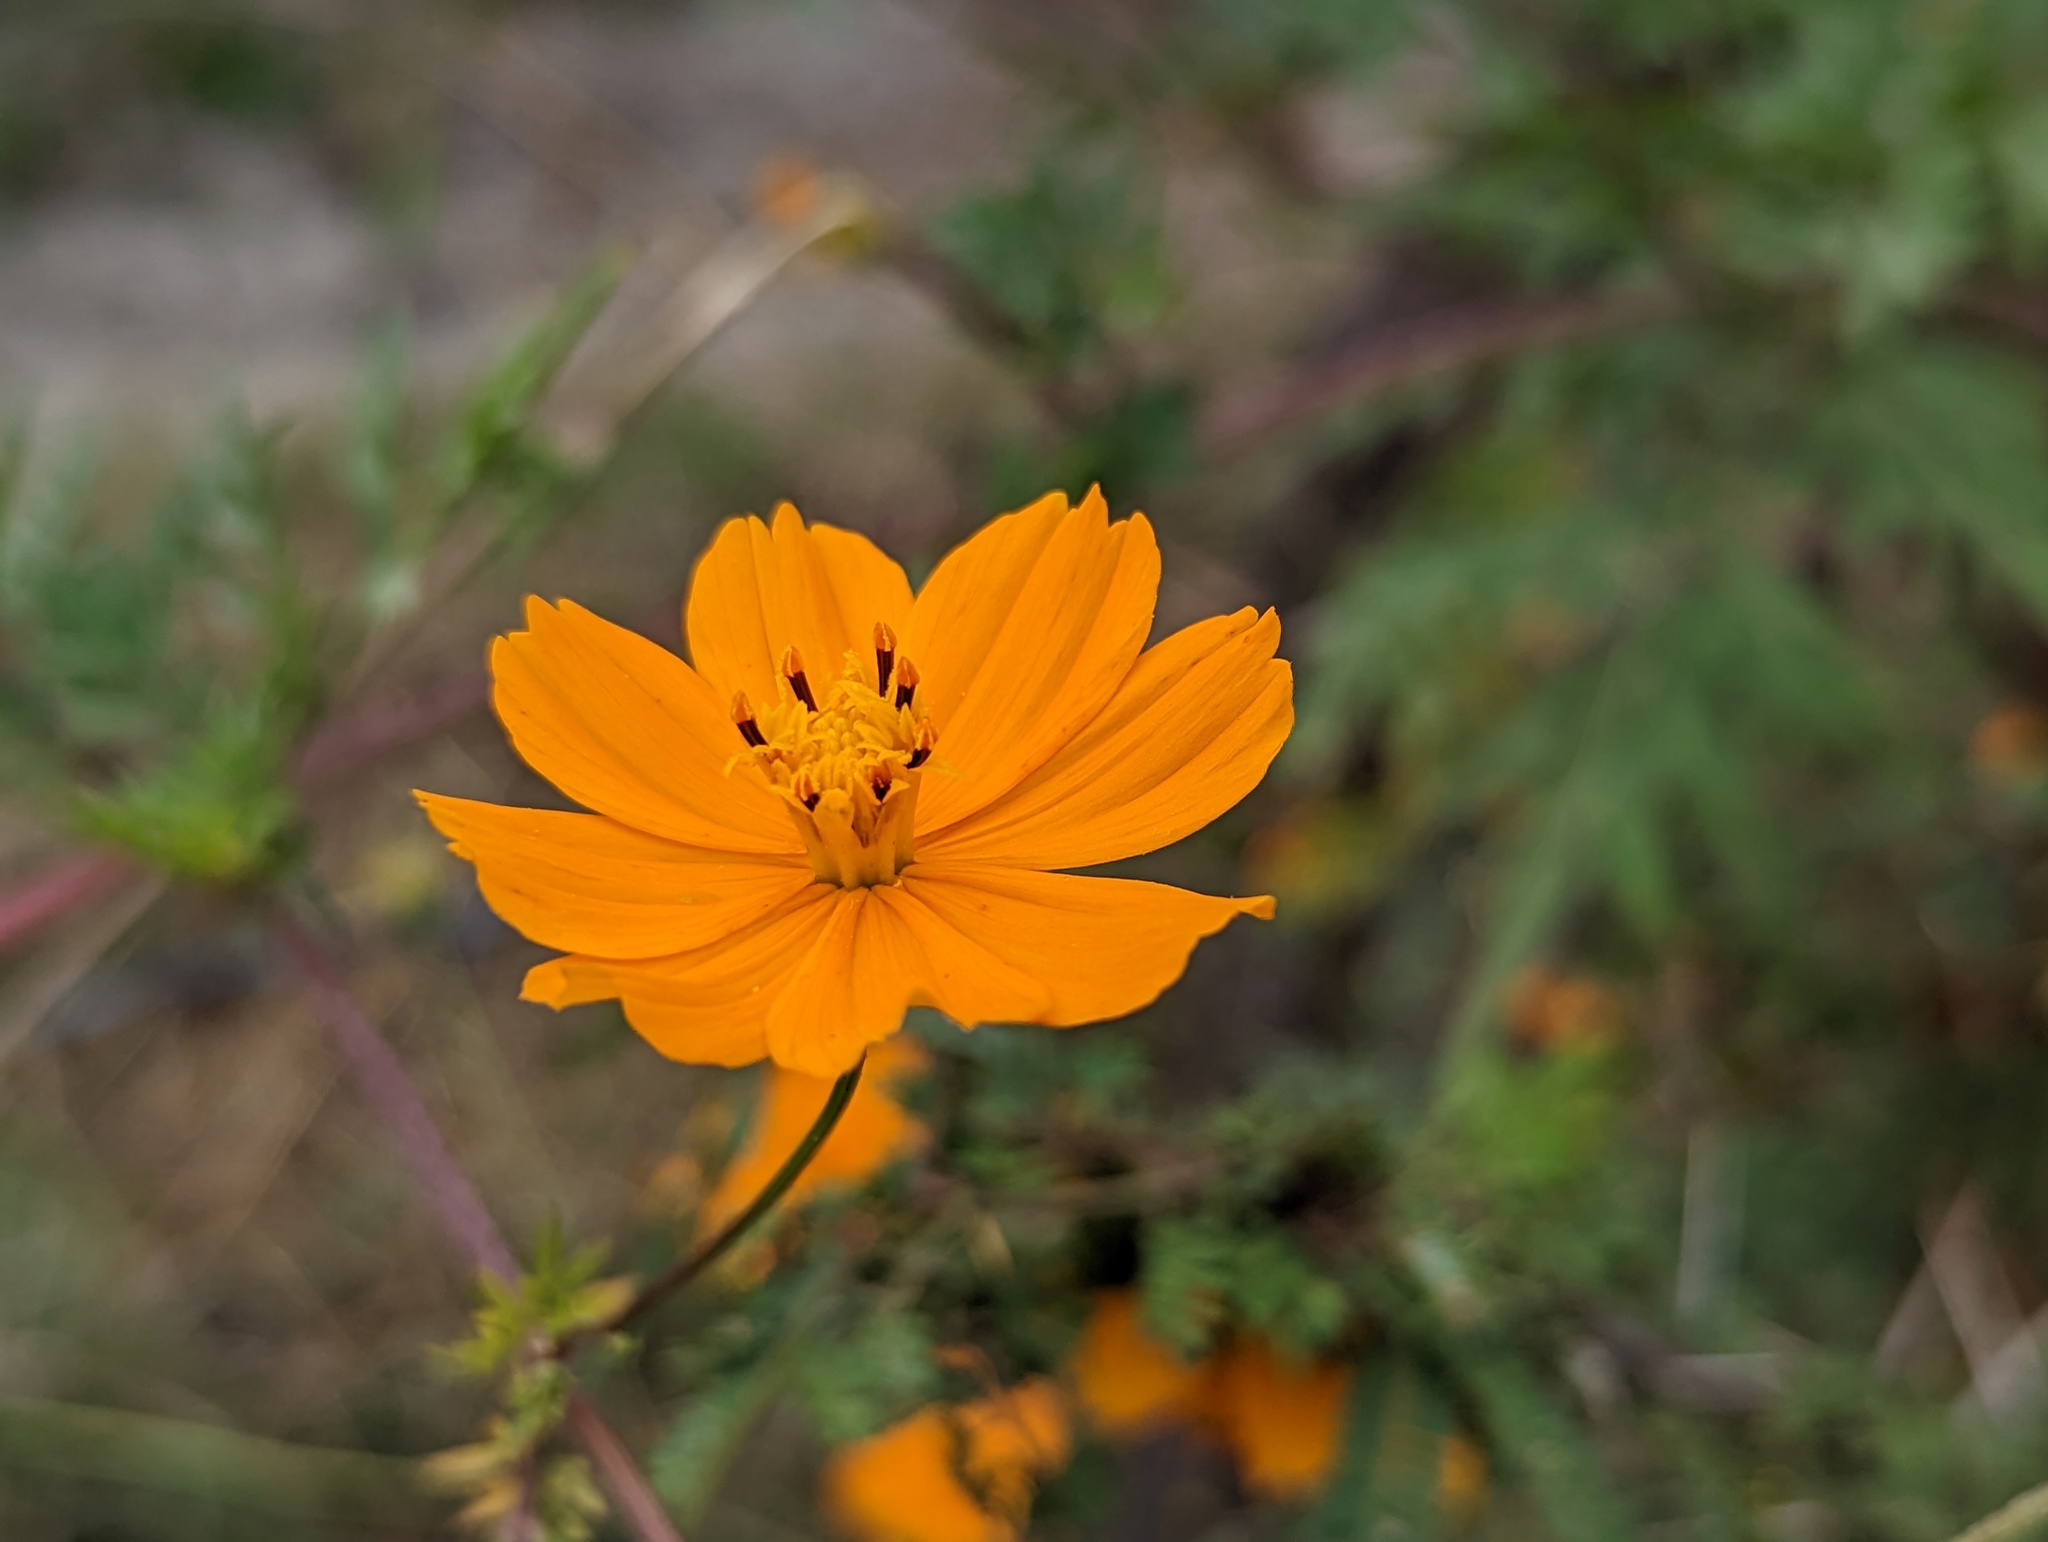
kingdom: Plantae
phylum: Tracheophyta
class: Magnoliopsida
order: Asterales
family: Asteraceae
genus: Cosmos
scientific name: Cosmos sulphureus
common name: Sulphur cosmos
